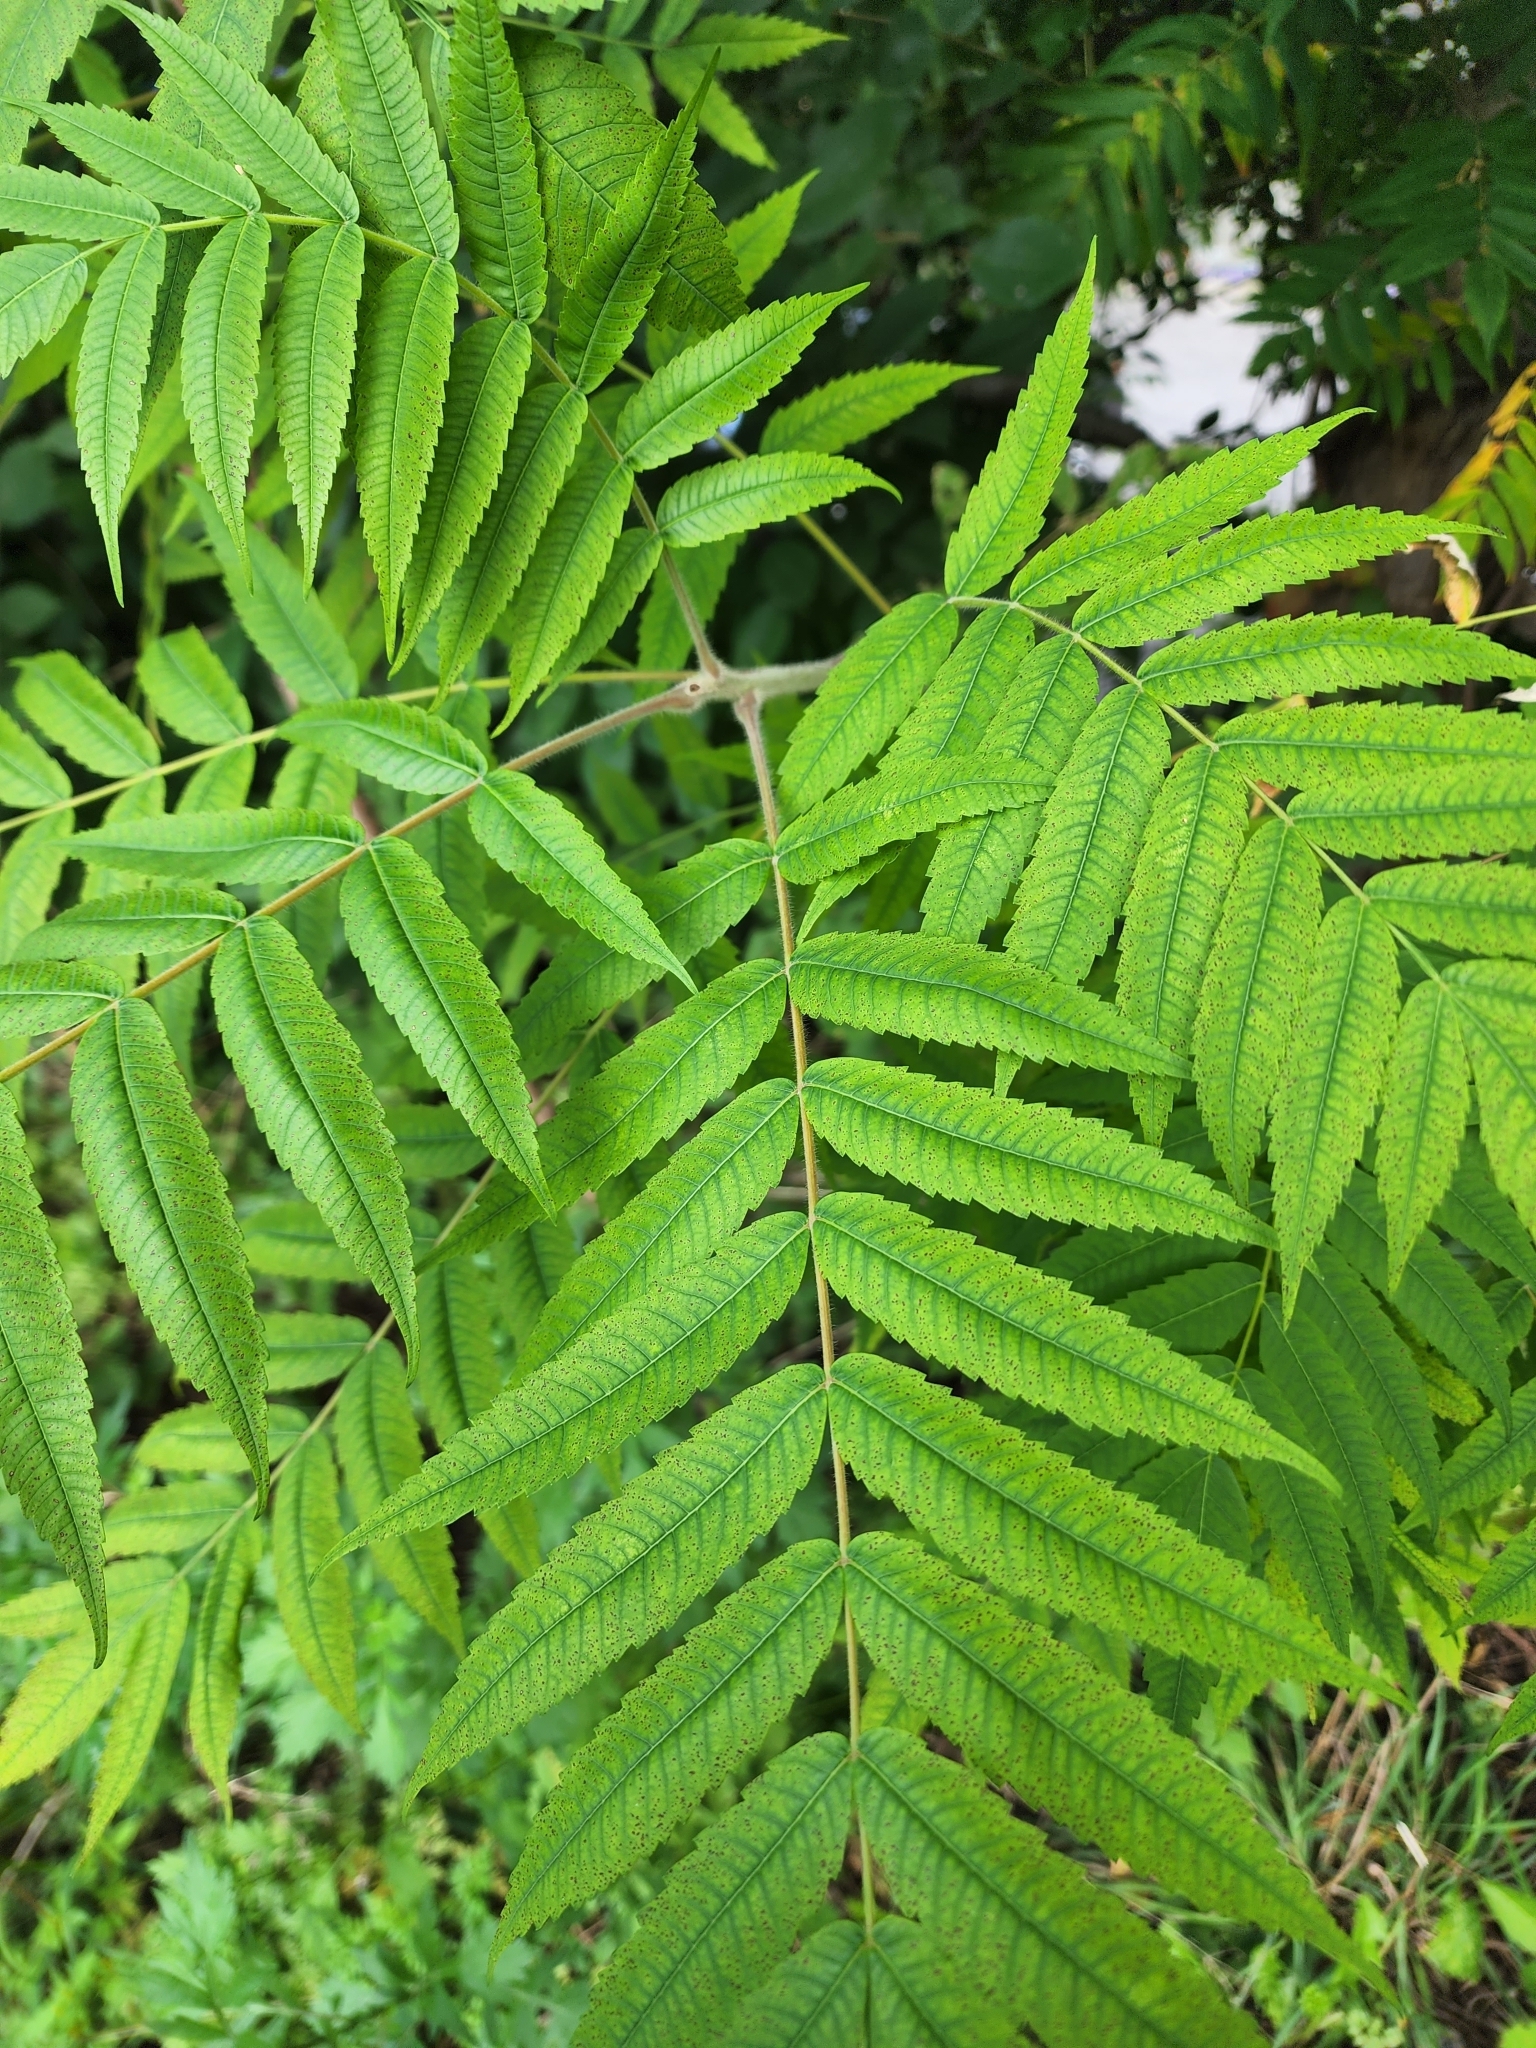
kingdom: Plantae
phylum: Tracheophyta
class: Magnoliopsida
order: Sapindales
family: Anacardiaceae
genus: Rhus
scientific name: Rhus typhina
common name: Staghorn sumac
